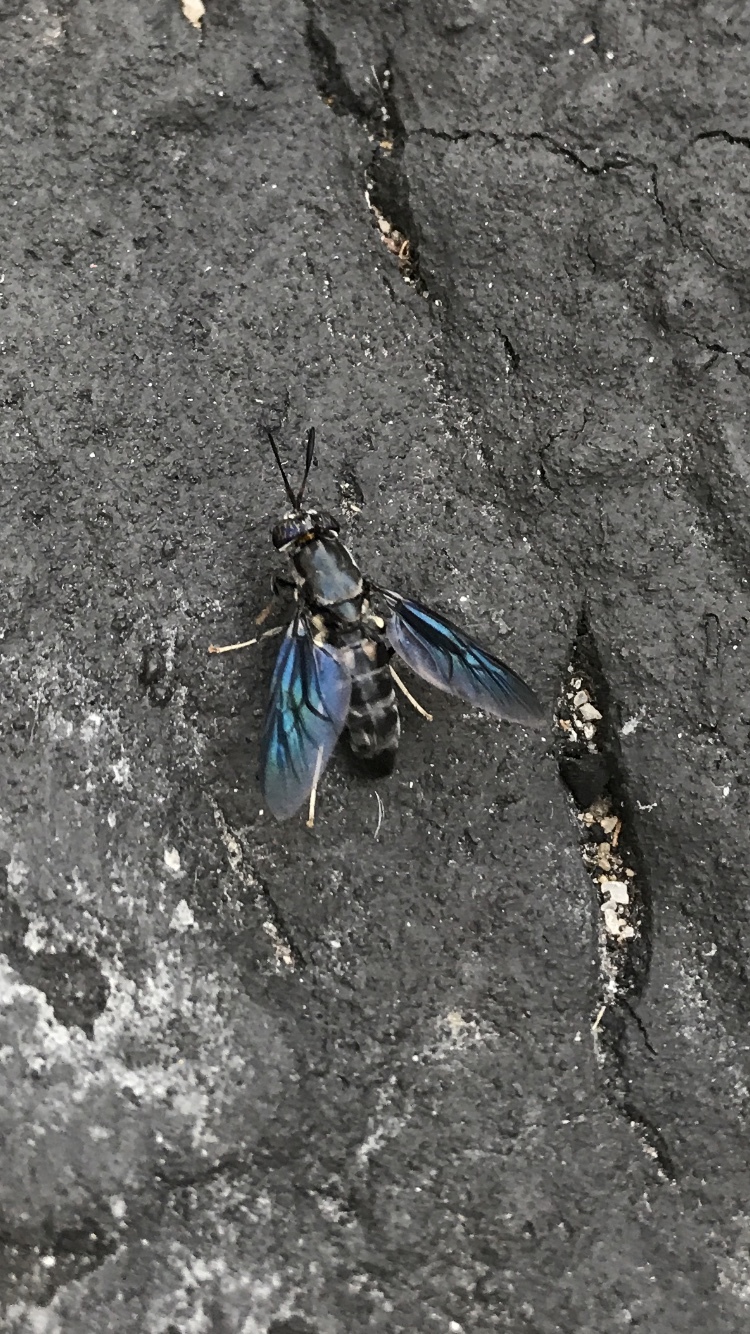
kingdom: Animalia
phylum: Arthropoda
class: Insecta
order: Diptera
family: Stratiomyidae
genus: Hermetia
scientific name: Hermetia illucens
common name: Black soldier fly
